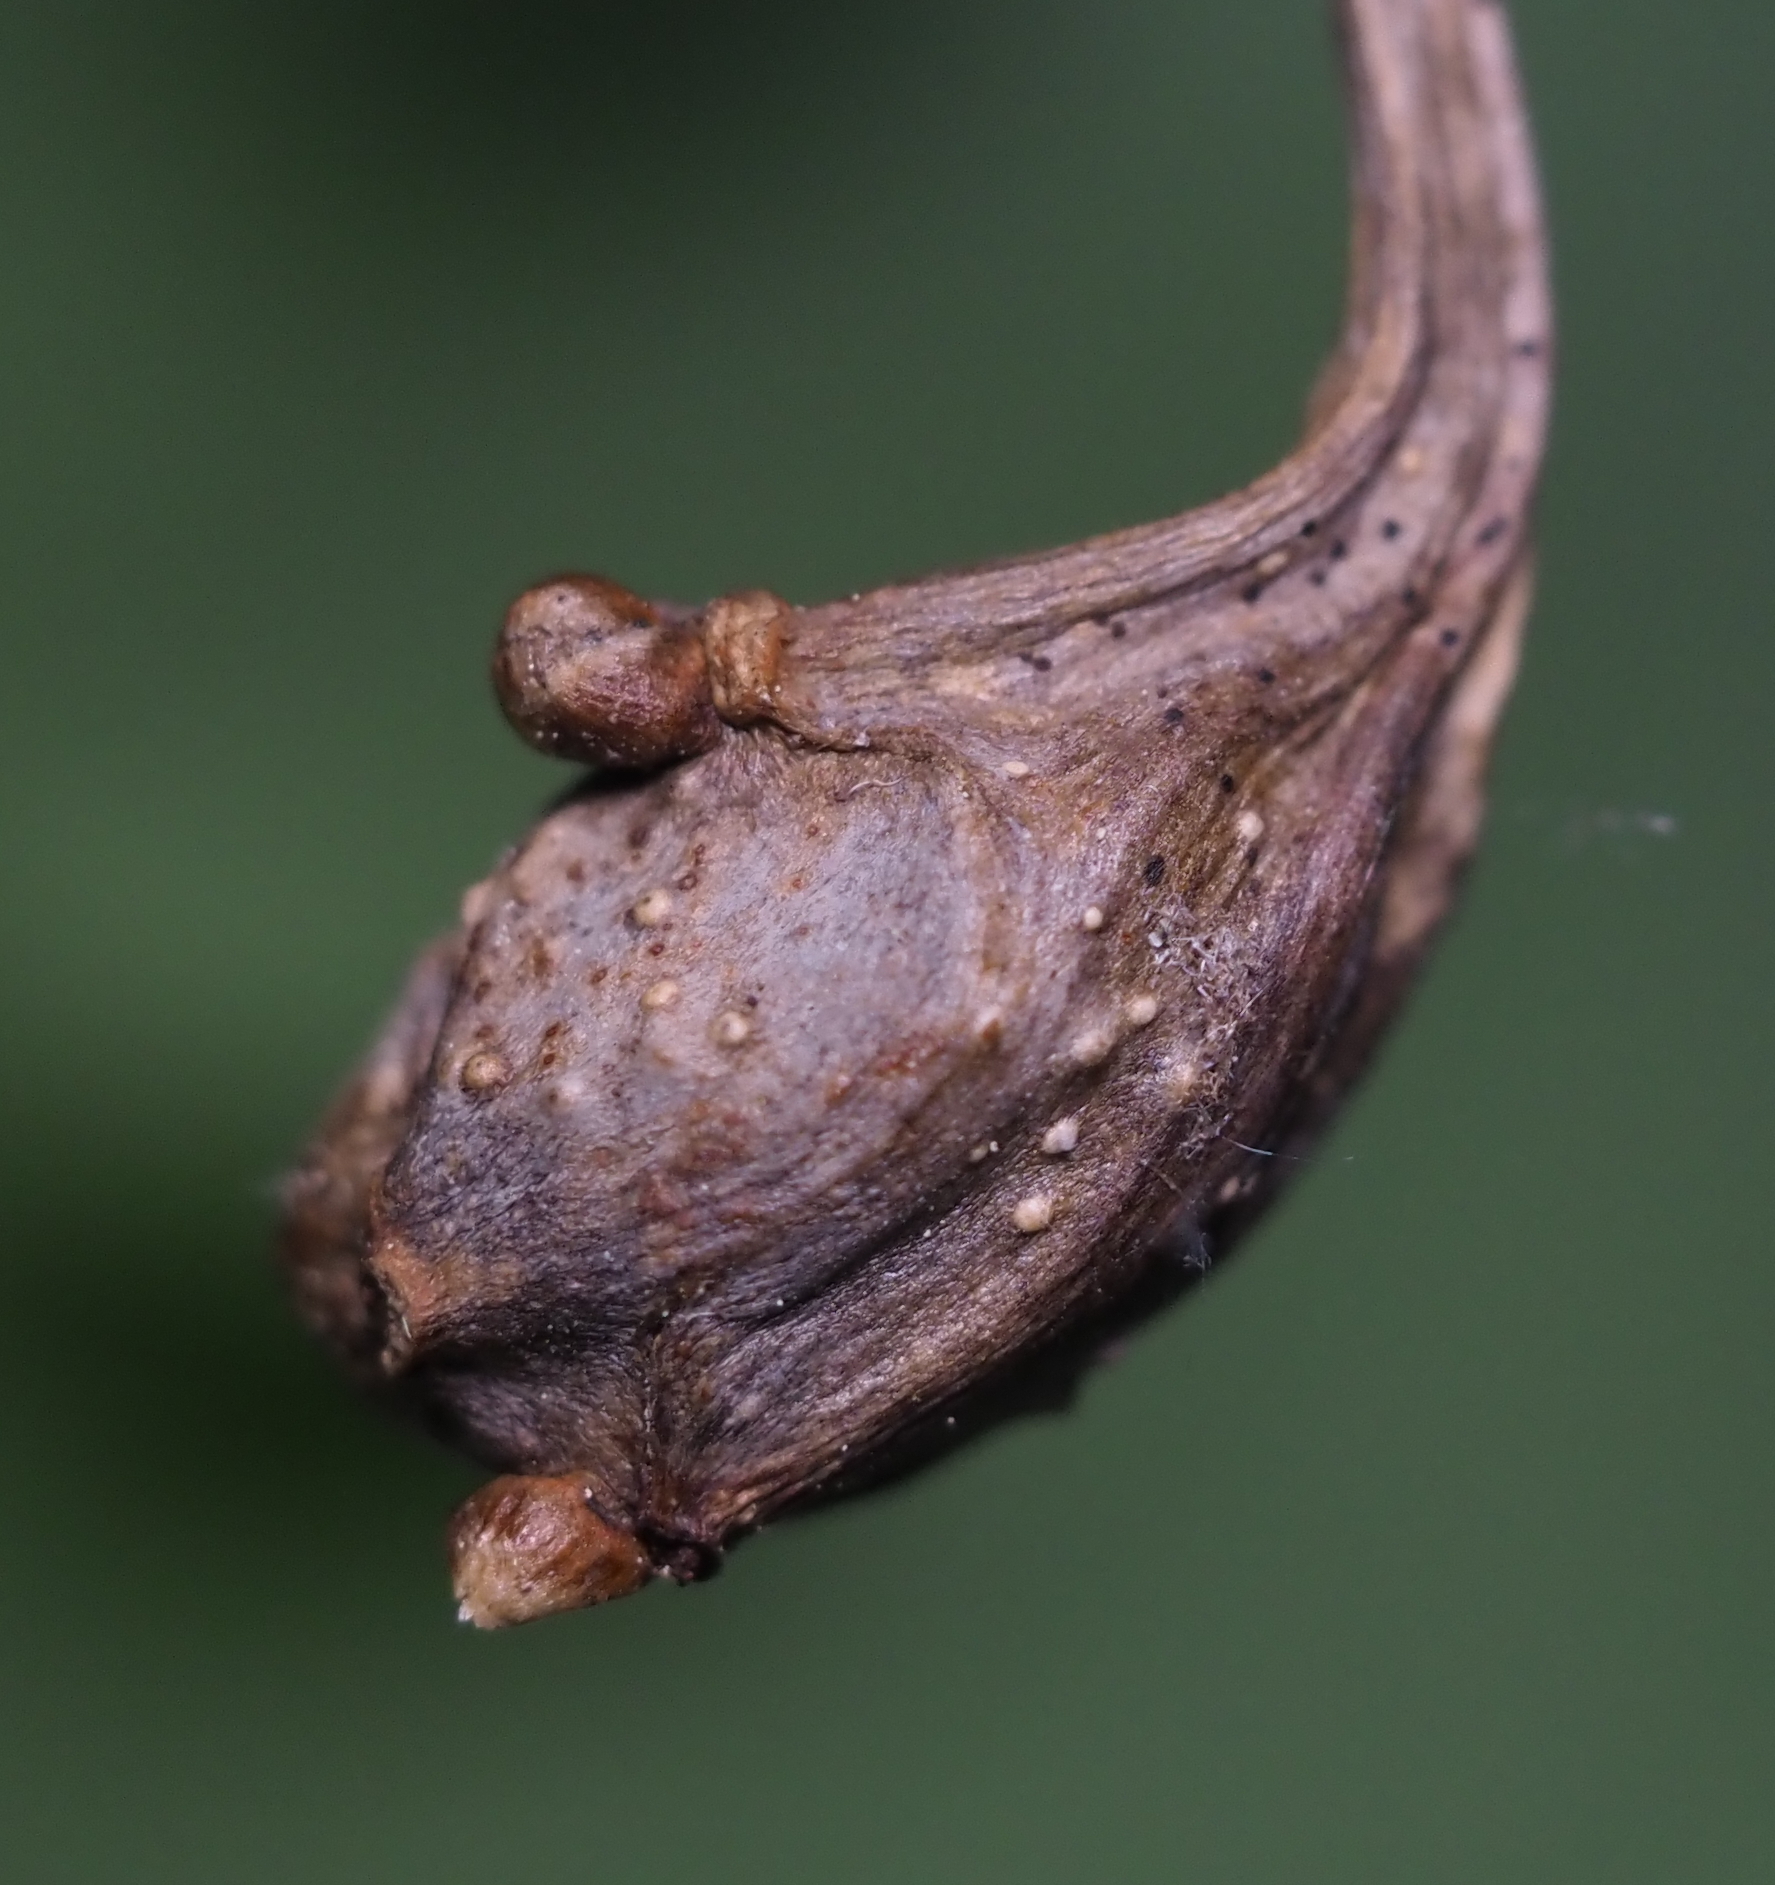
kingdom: Animalia
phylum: Arthropoda
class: Insecta
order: Hymenoptera
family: Cynipidae
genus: Callirhytis
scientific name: Callirhytis clavula
